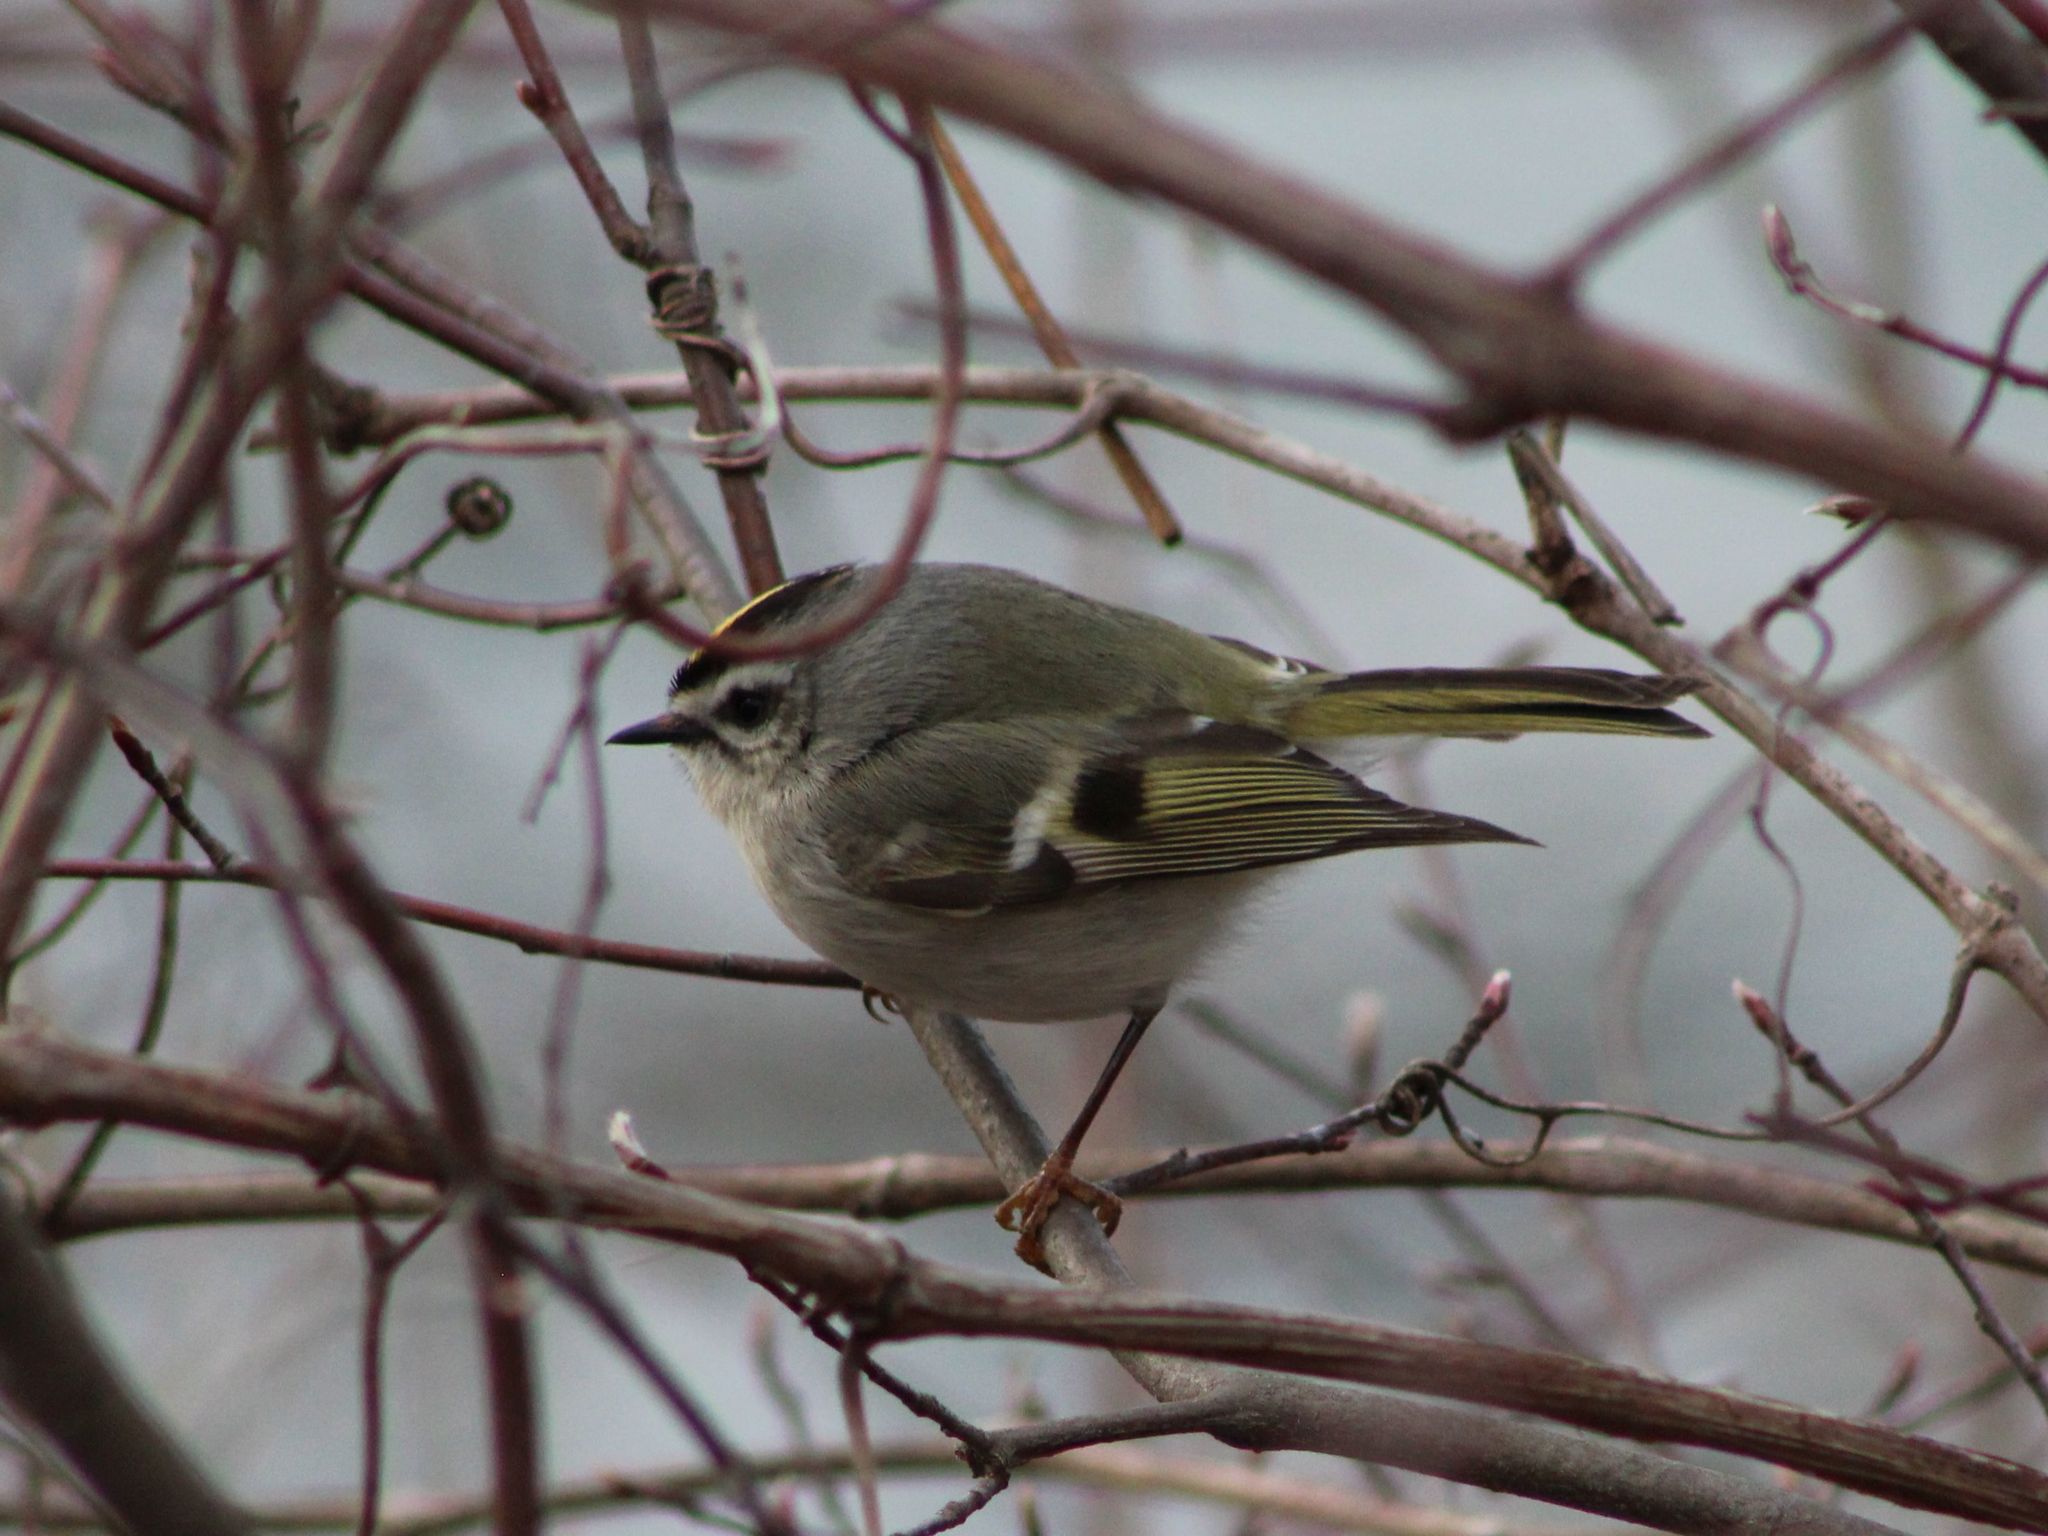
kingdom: Animalia
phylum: Chordata
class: Aves
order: Passeriformes
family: Regulidae
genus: Regulus
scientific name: Regulus satrapa
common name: Golden-crowned kinglet
